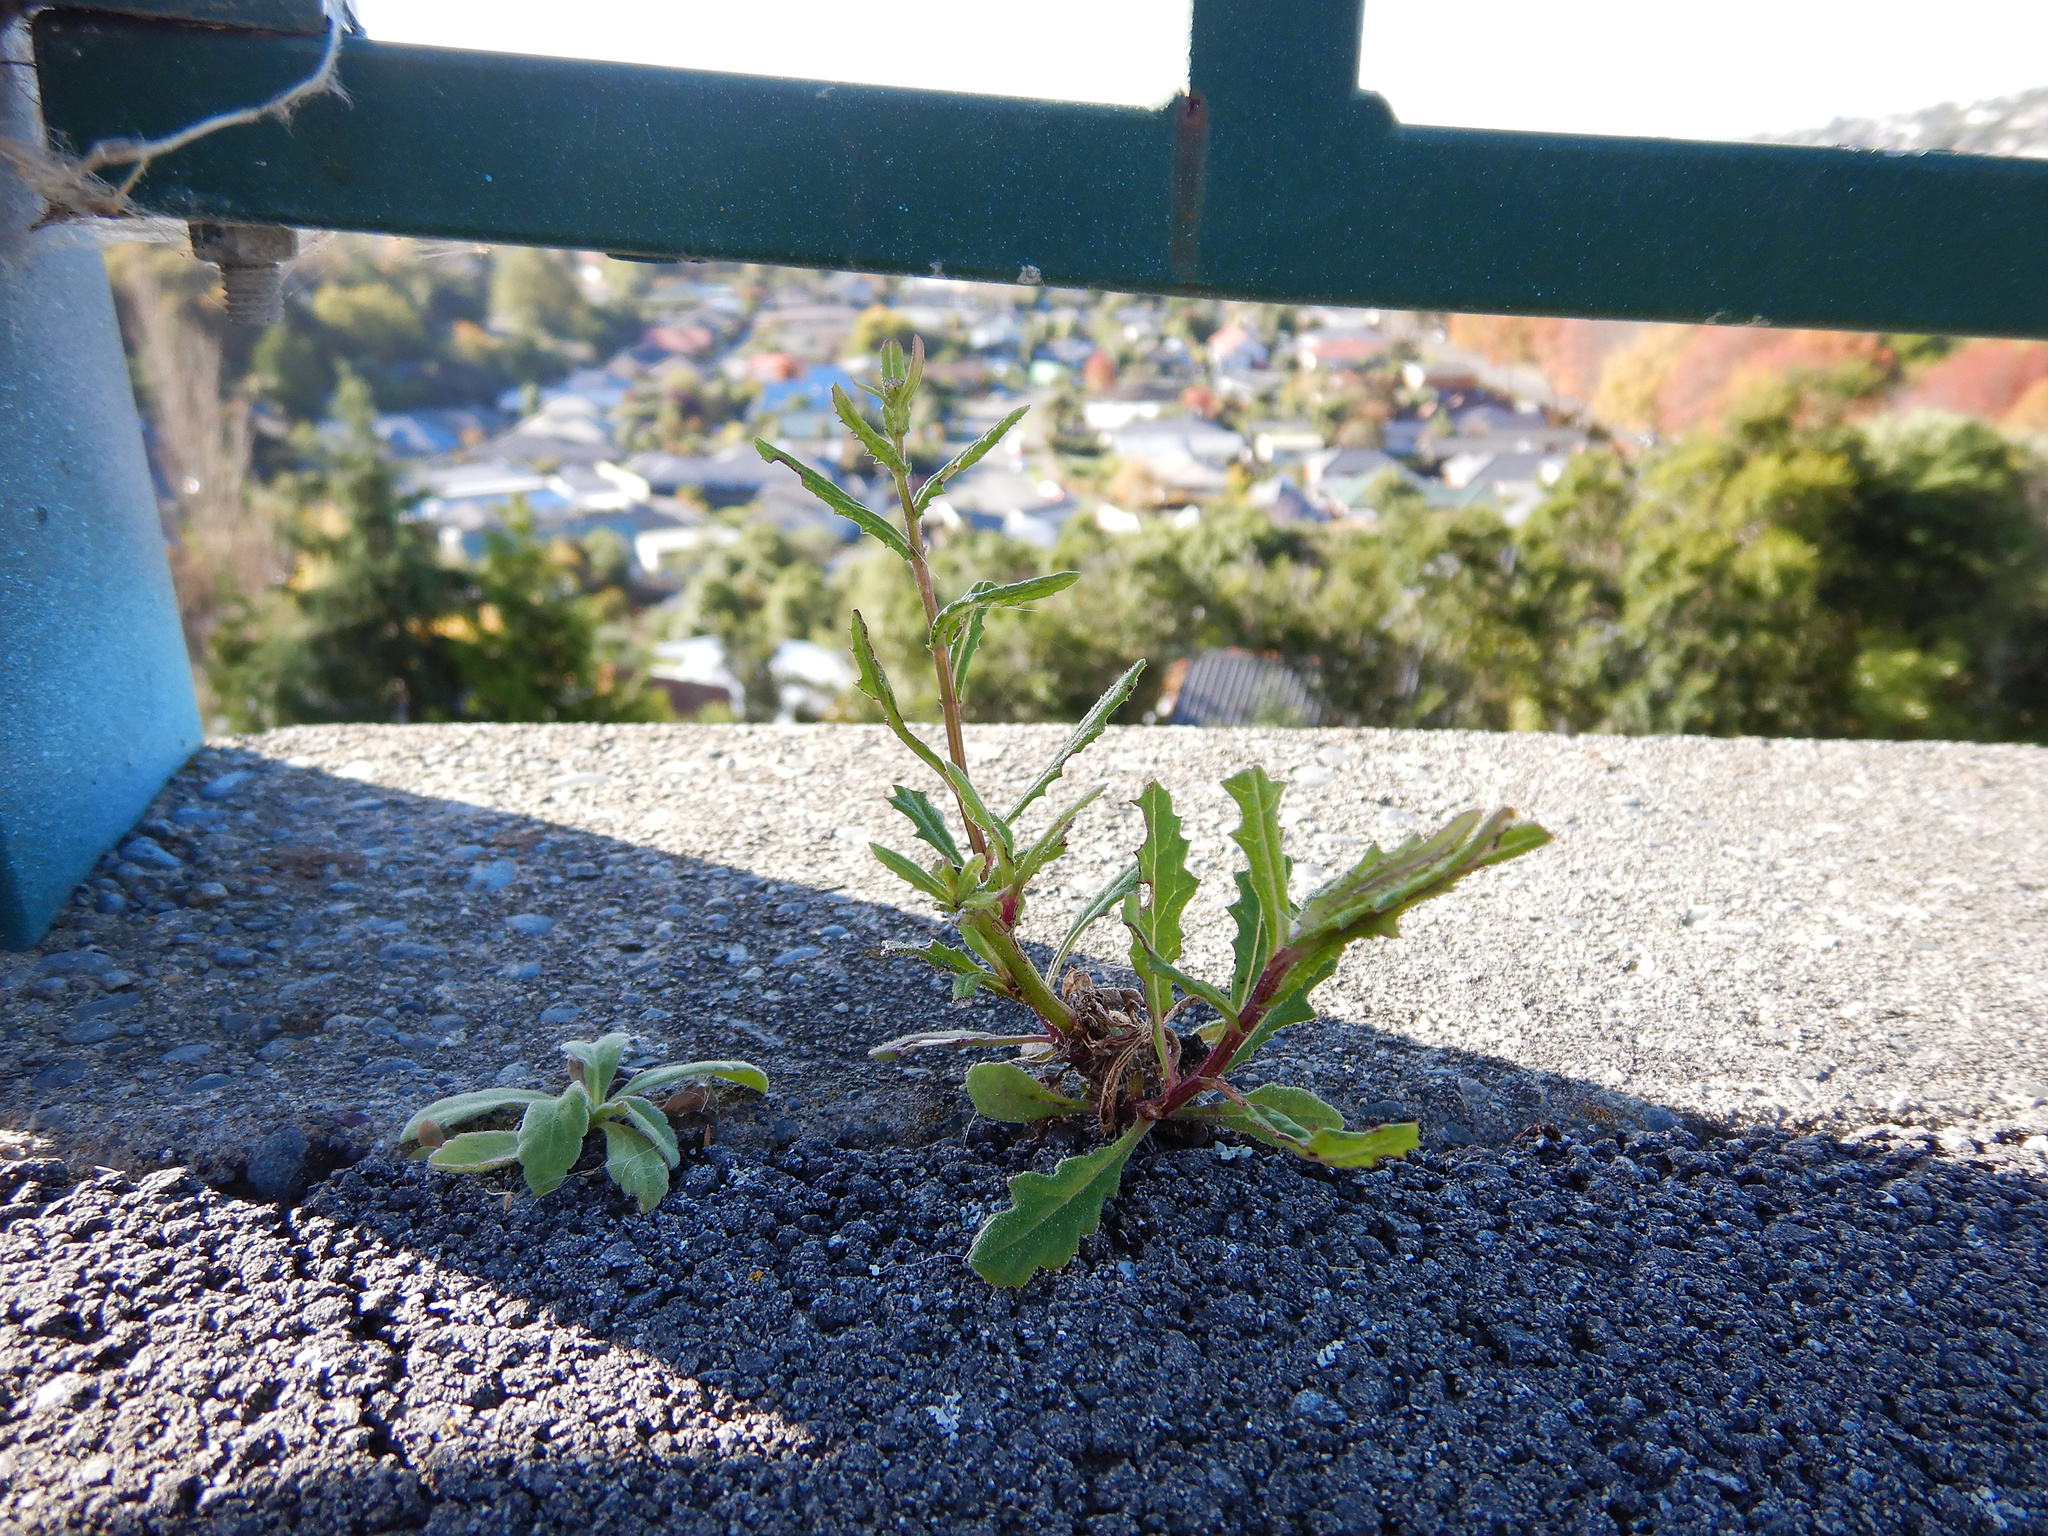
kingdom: Plantae
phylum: Tracheophyta
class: Magnoliopsida
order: Asterales
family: Asteraceae
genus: Senecio
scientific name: Senecio hispidulus
